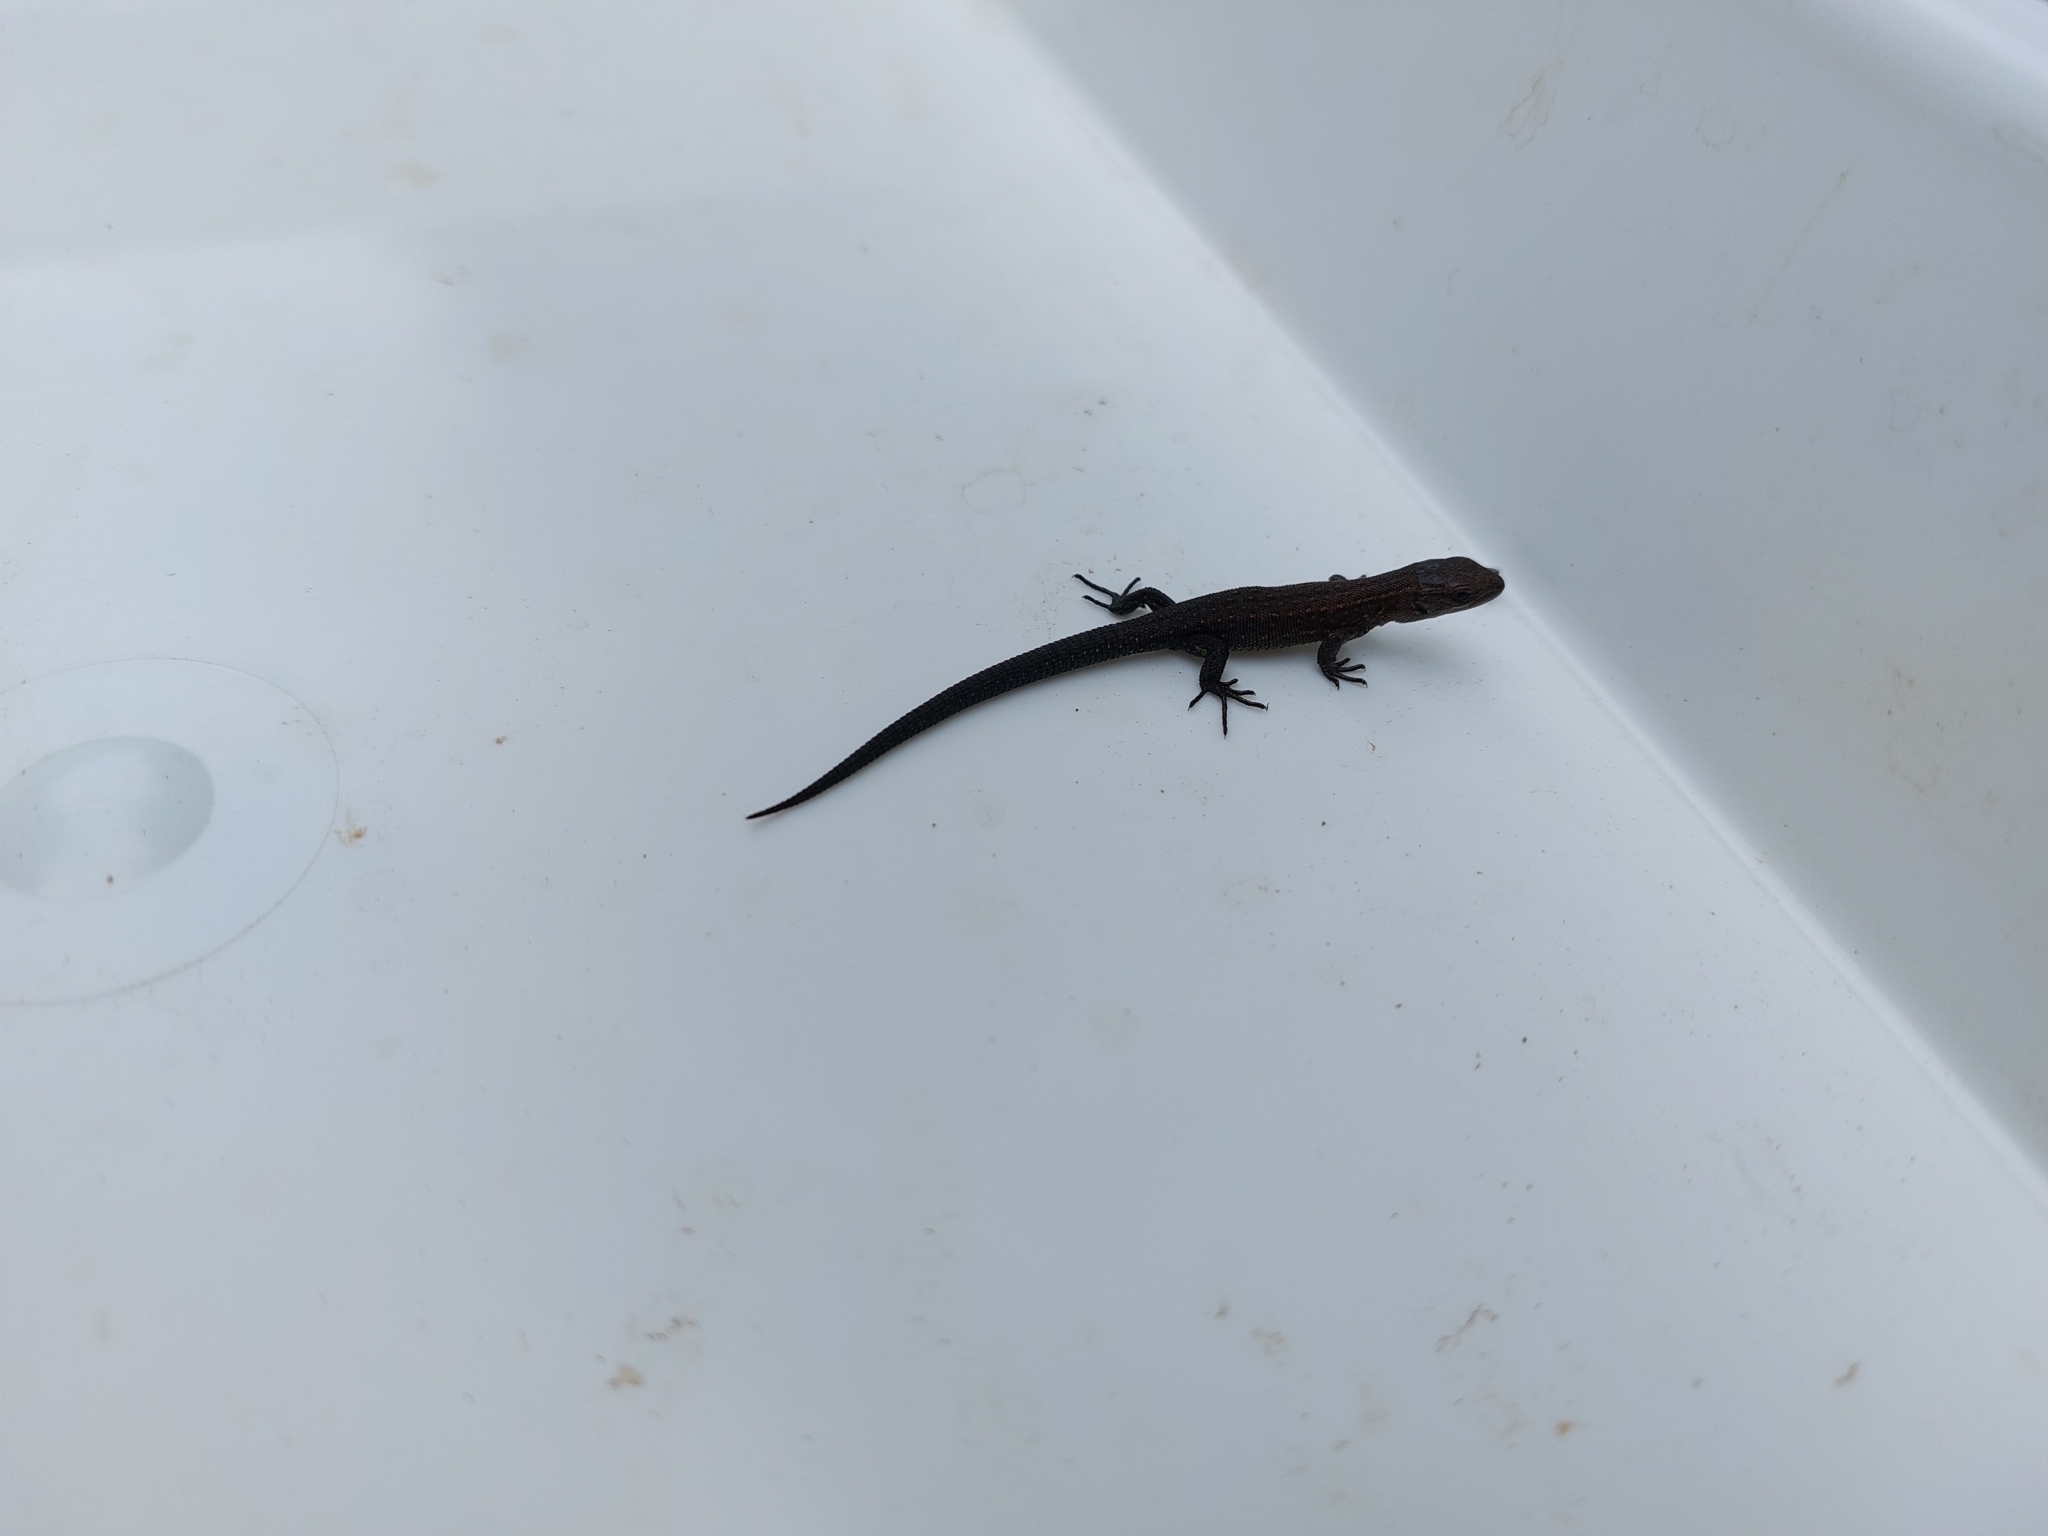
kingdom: Animalia
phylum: Chordata
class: Squamata
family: Lacertidae
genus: Zootoca
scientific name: Zootoca vivipara
